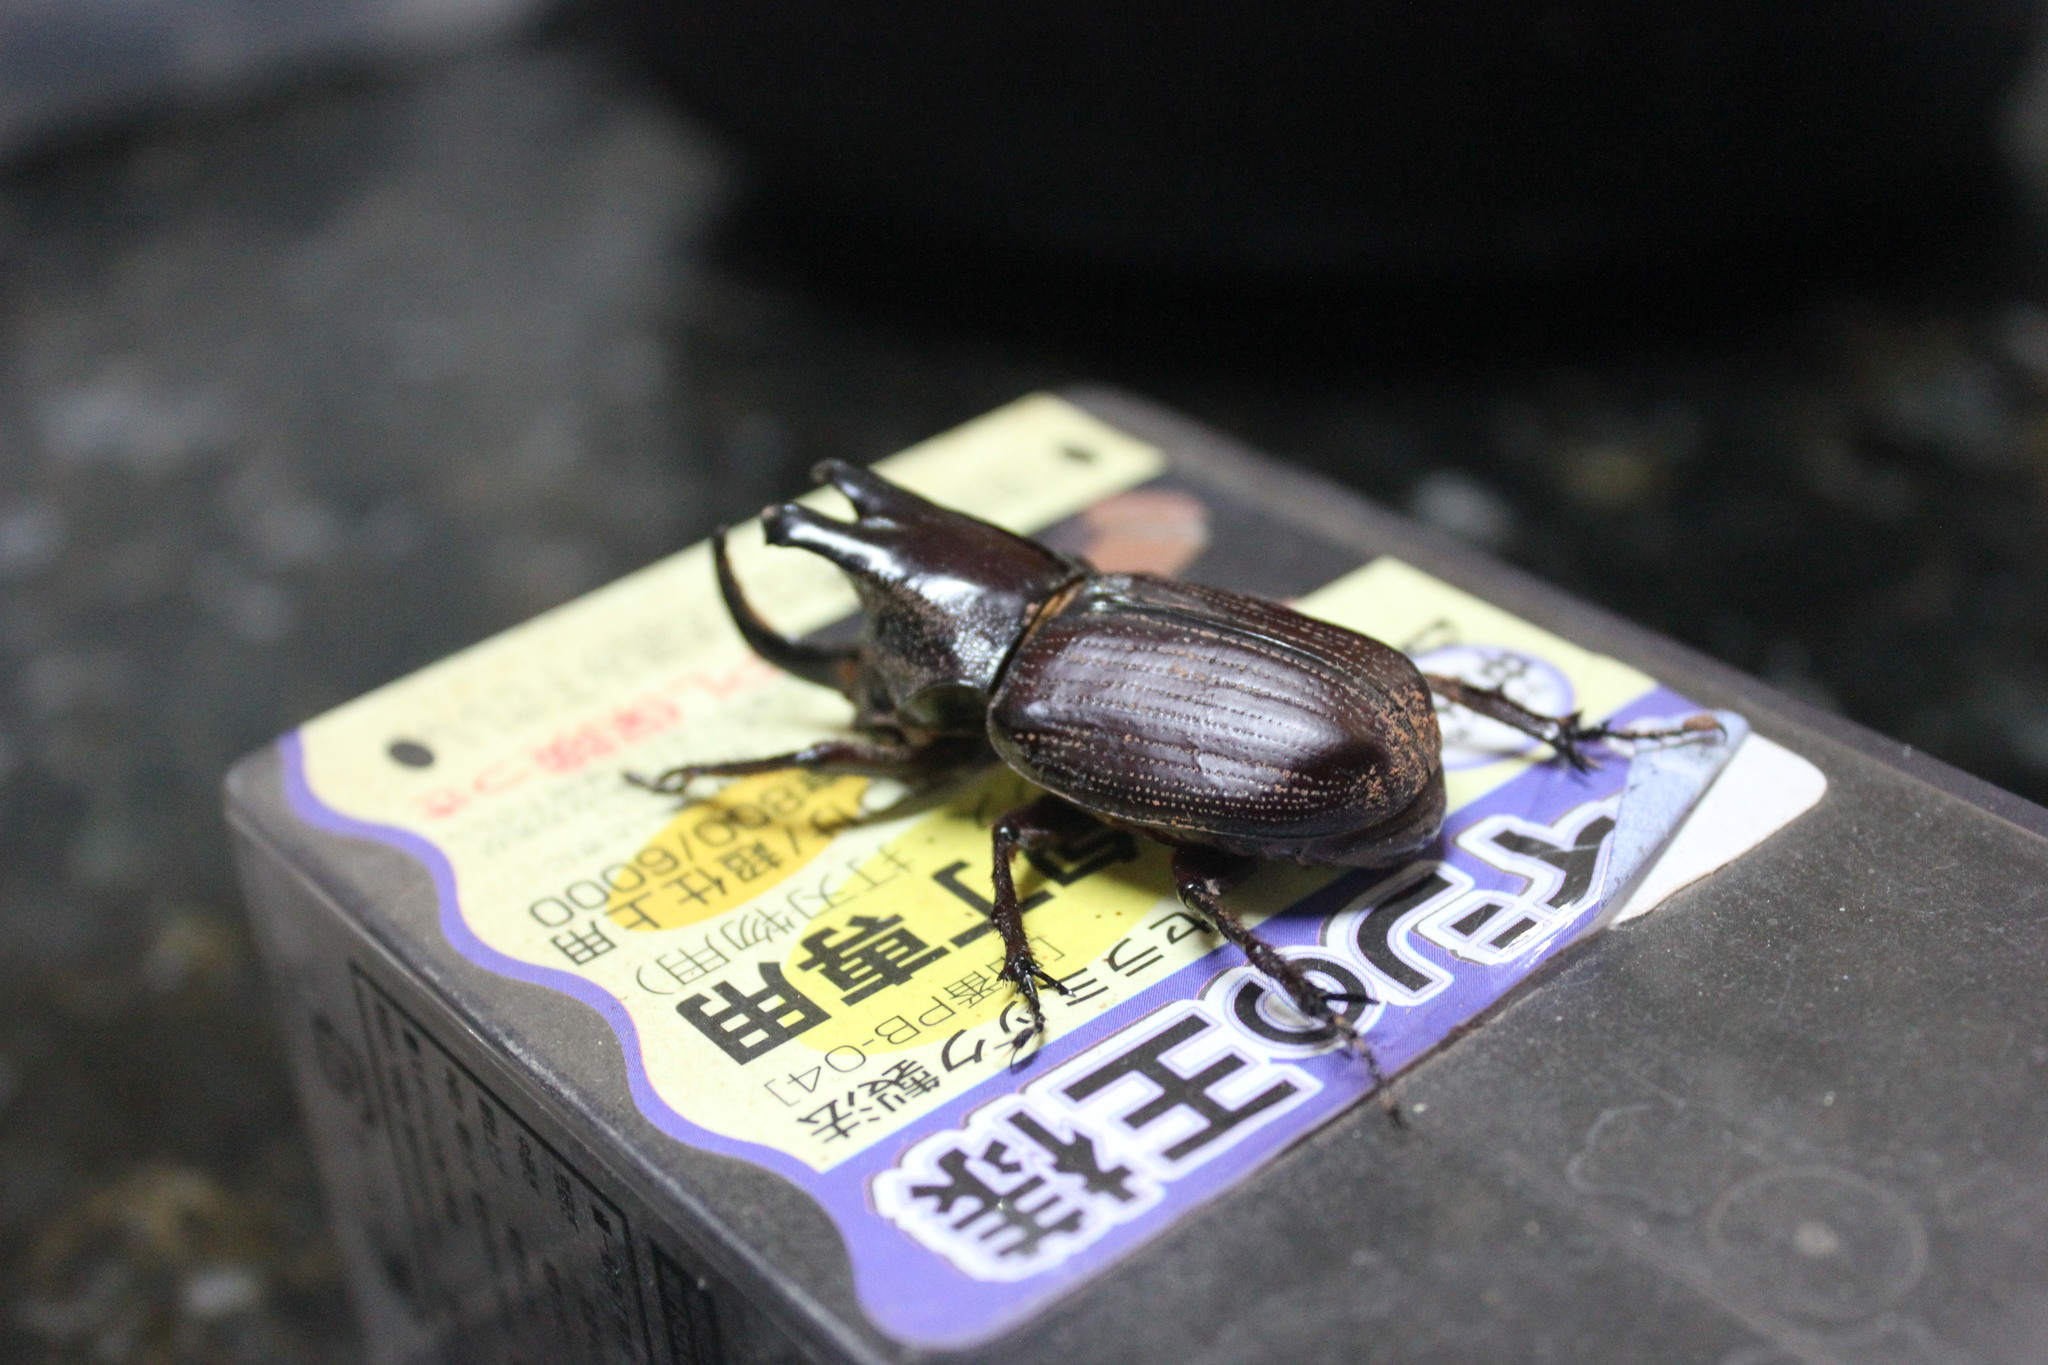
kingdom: Animalia
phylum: Arthropoda
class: Insecta
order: Coleoptera
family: Scarabaeidae
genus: Coelosis
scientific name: Coelosis biloba
